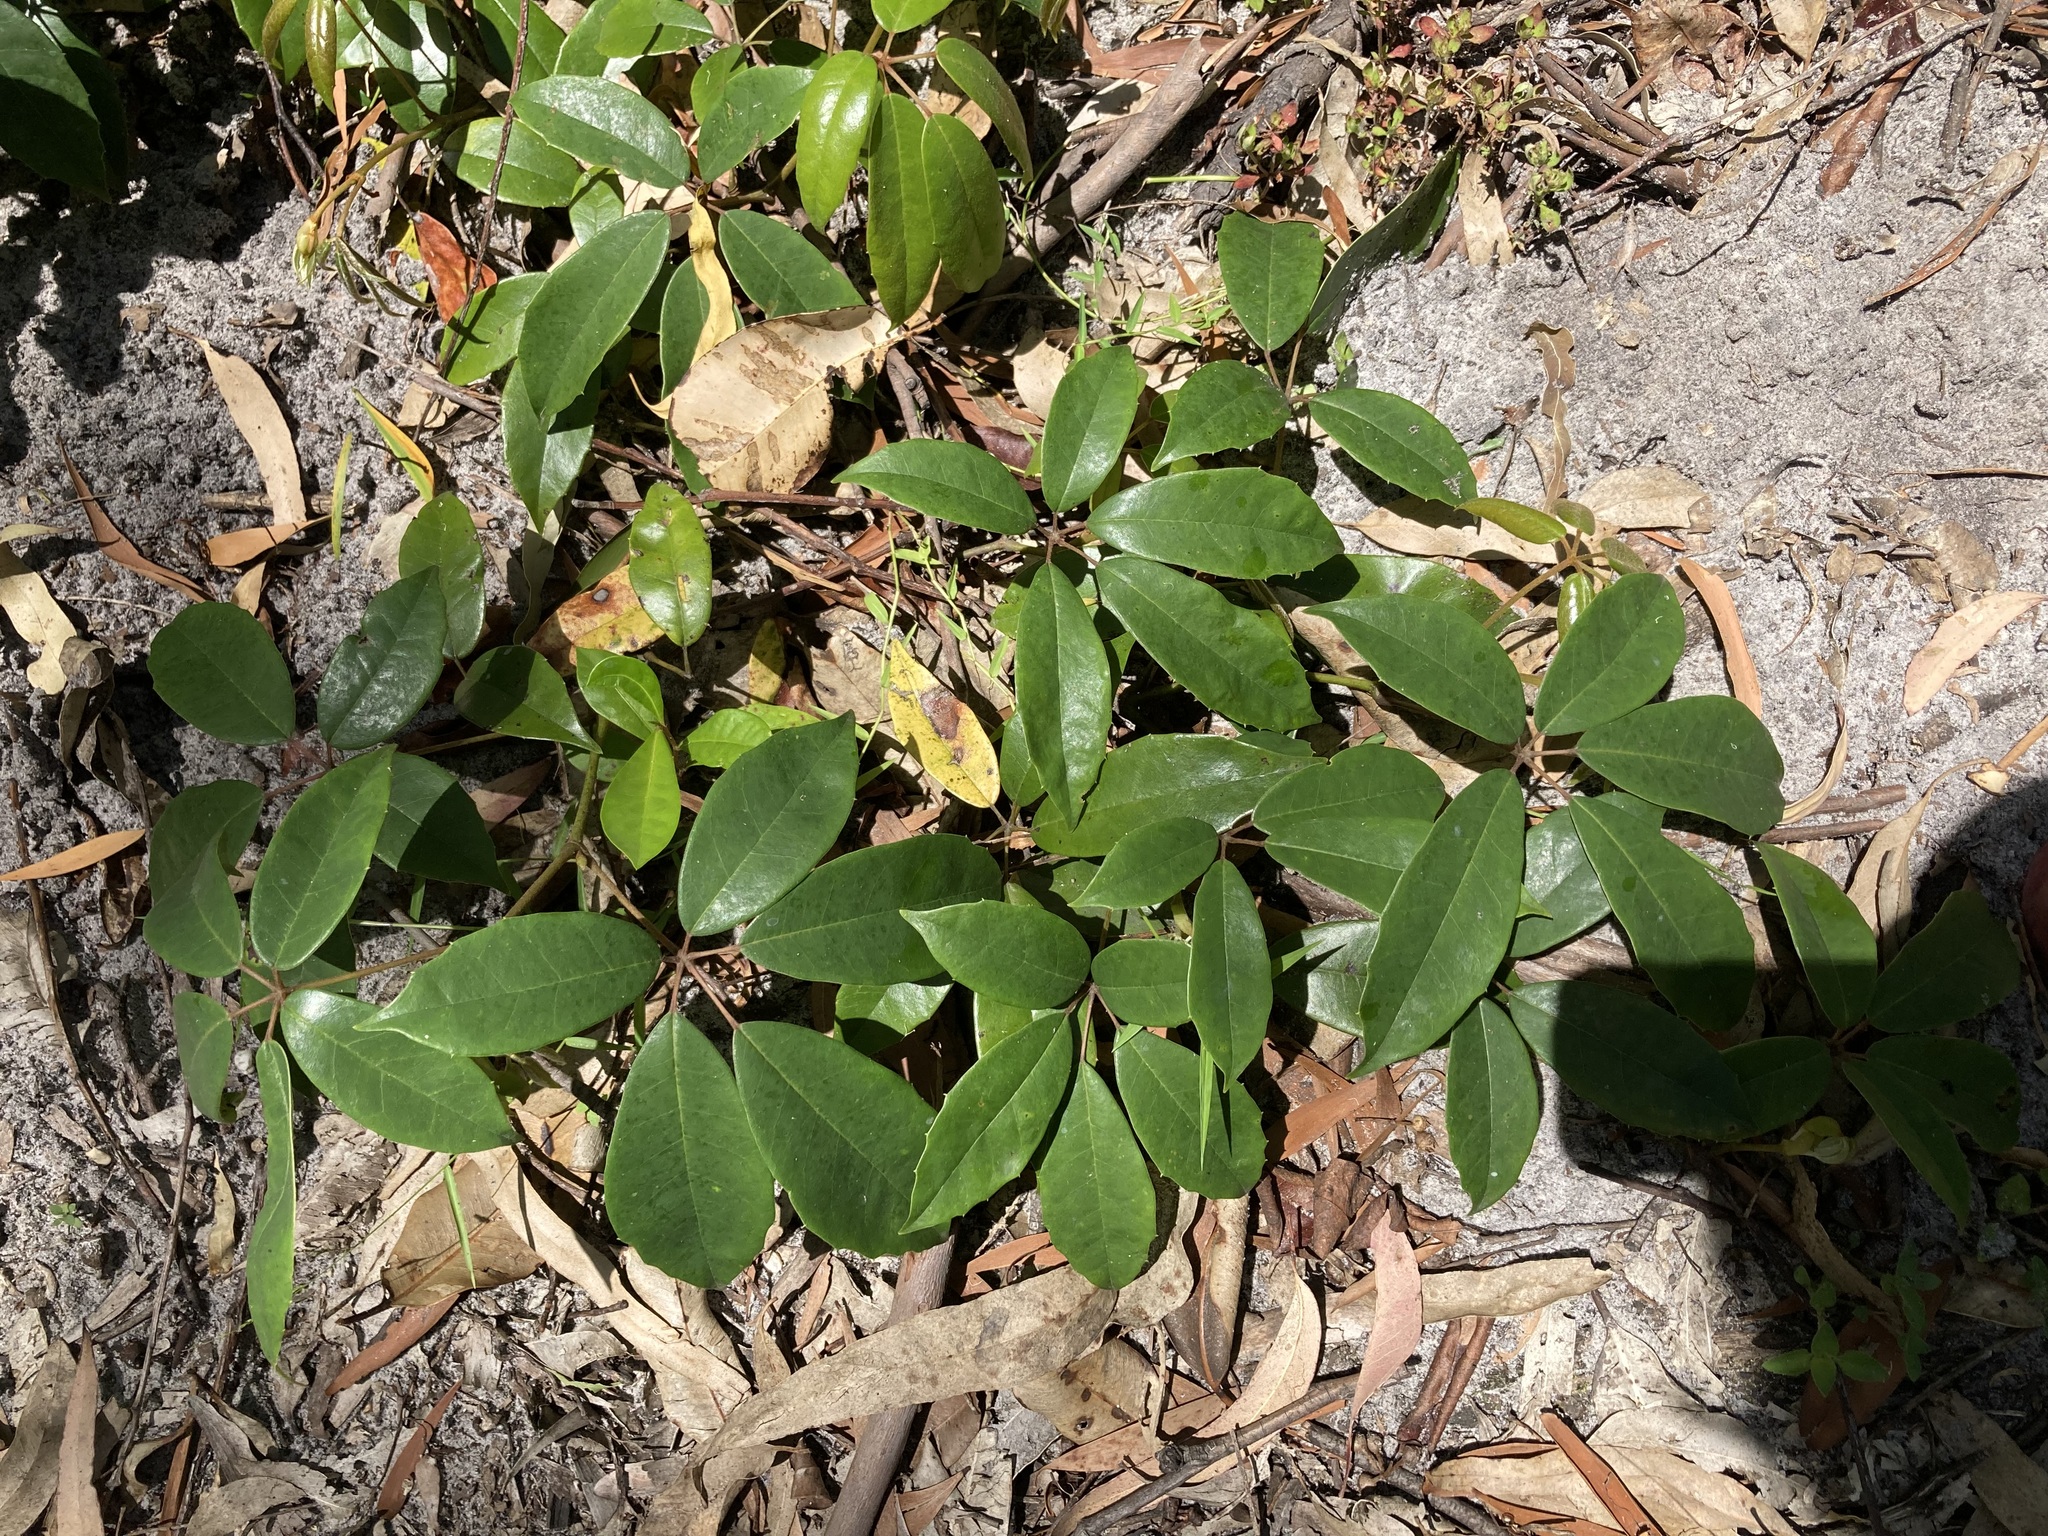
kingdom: Plantae
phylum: Tracheophyta
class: Magnoliopsida
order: Vitales
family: Vitaceae
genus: Nothocissus
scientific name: Nothocissus hypoglauca
